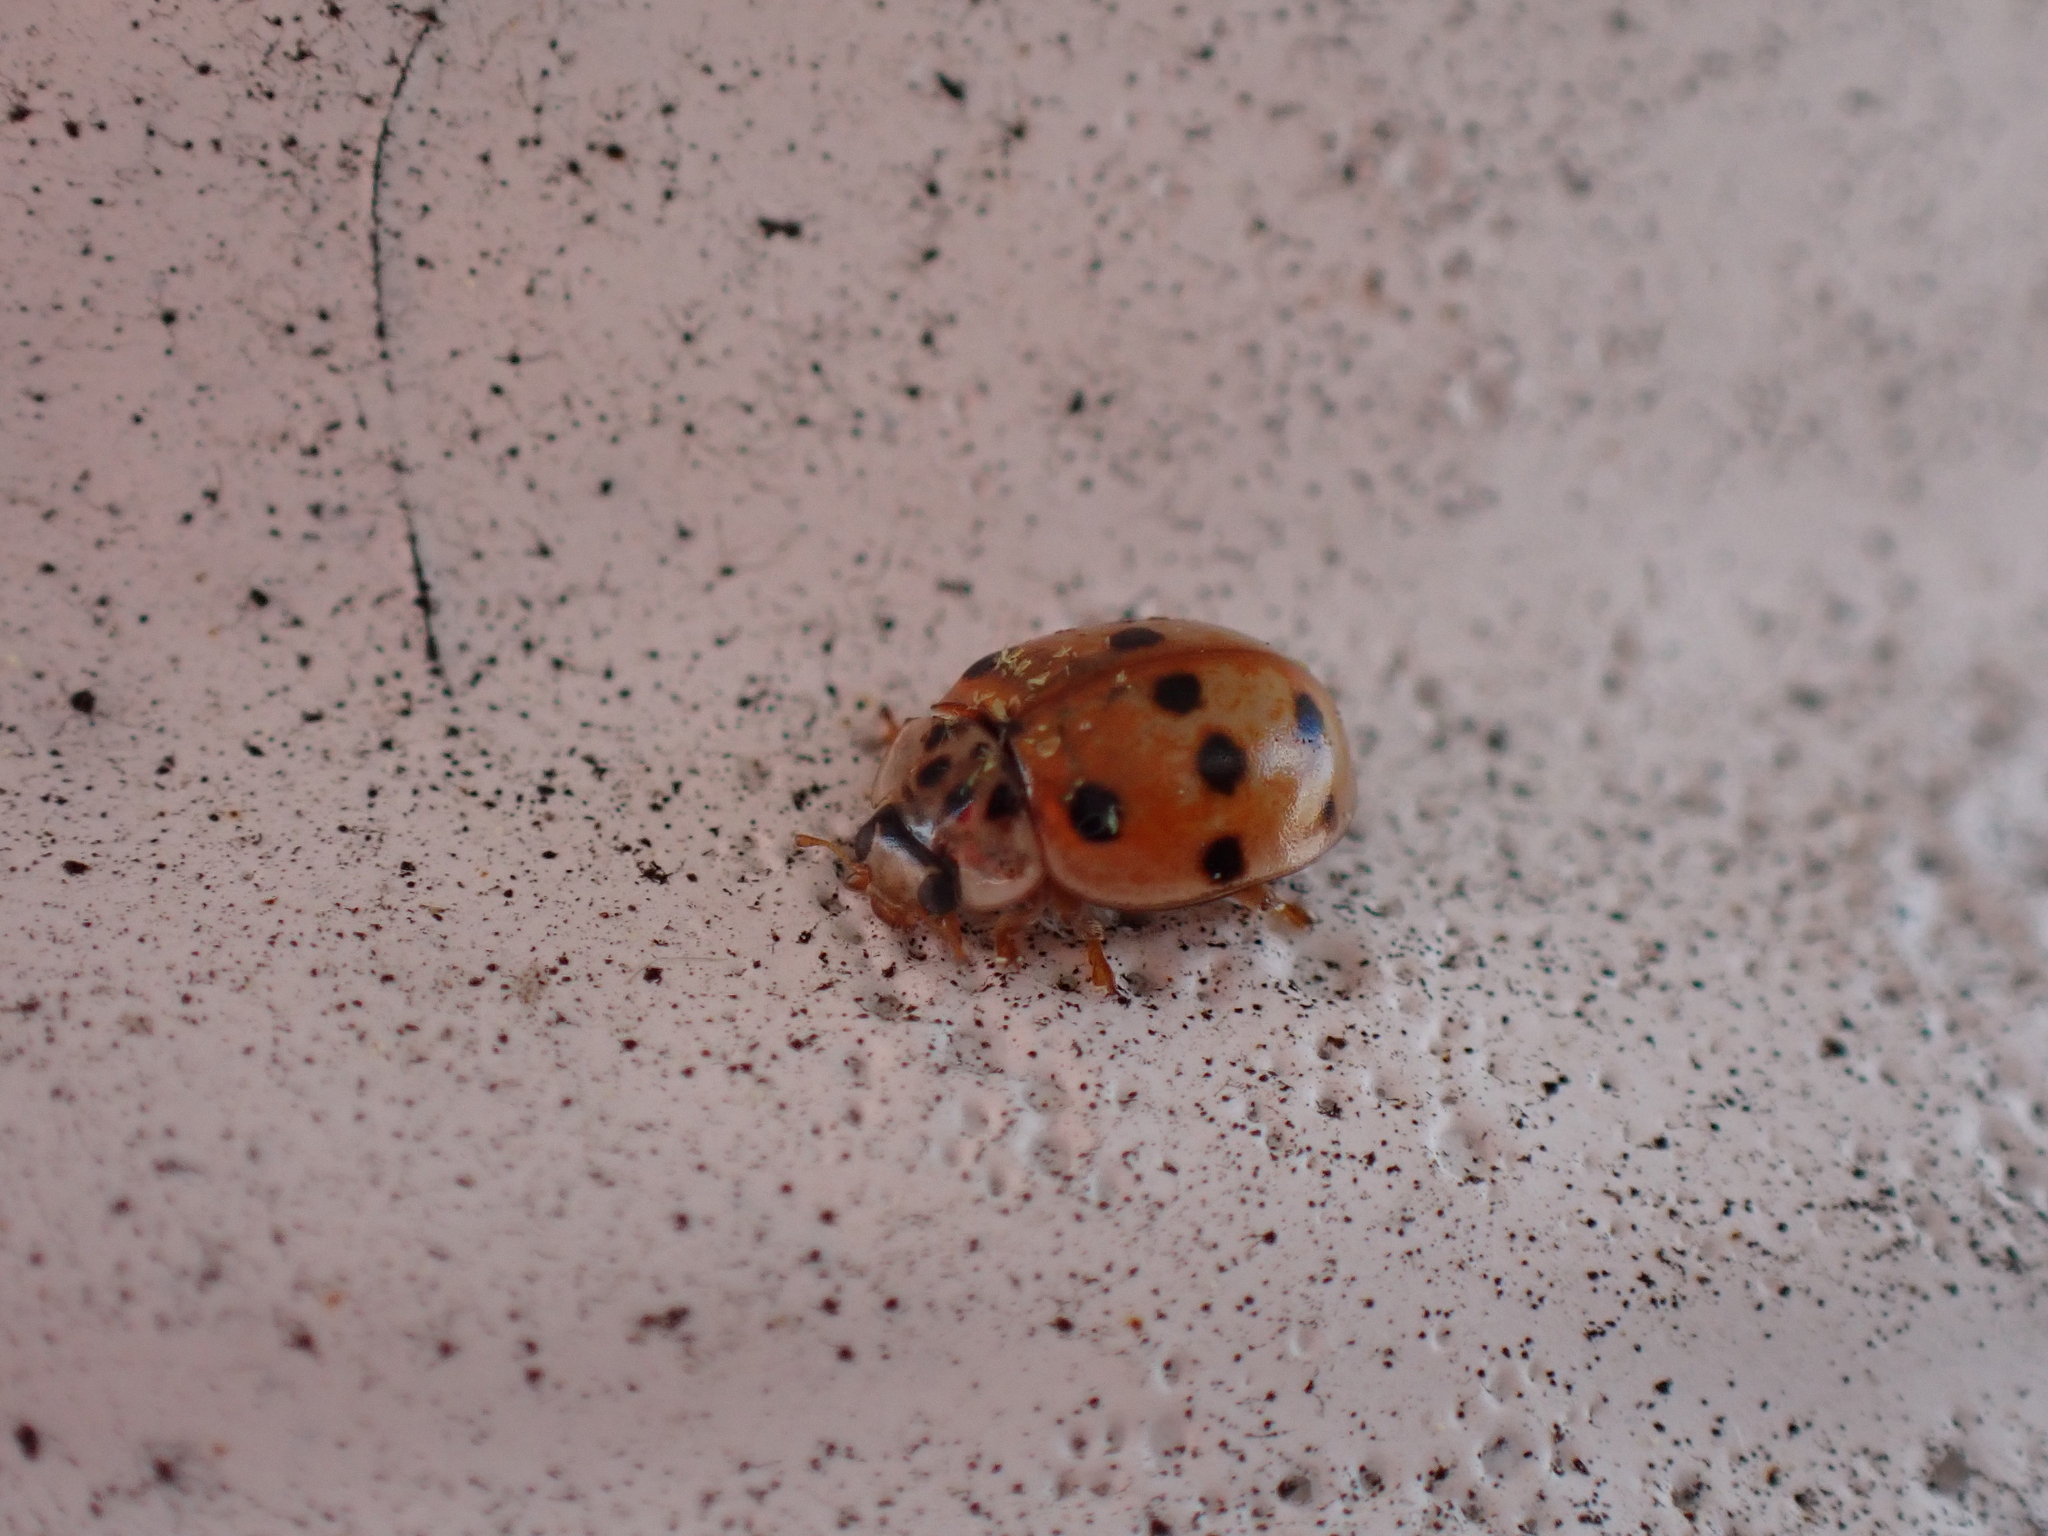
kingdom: Animalia
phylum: Arthropoda
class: Insecta
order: Coleoptera
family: Coccinellidae
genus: Adalia
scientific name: Adalia decempunctata
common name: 10-spot ladybird
